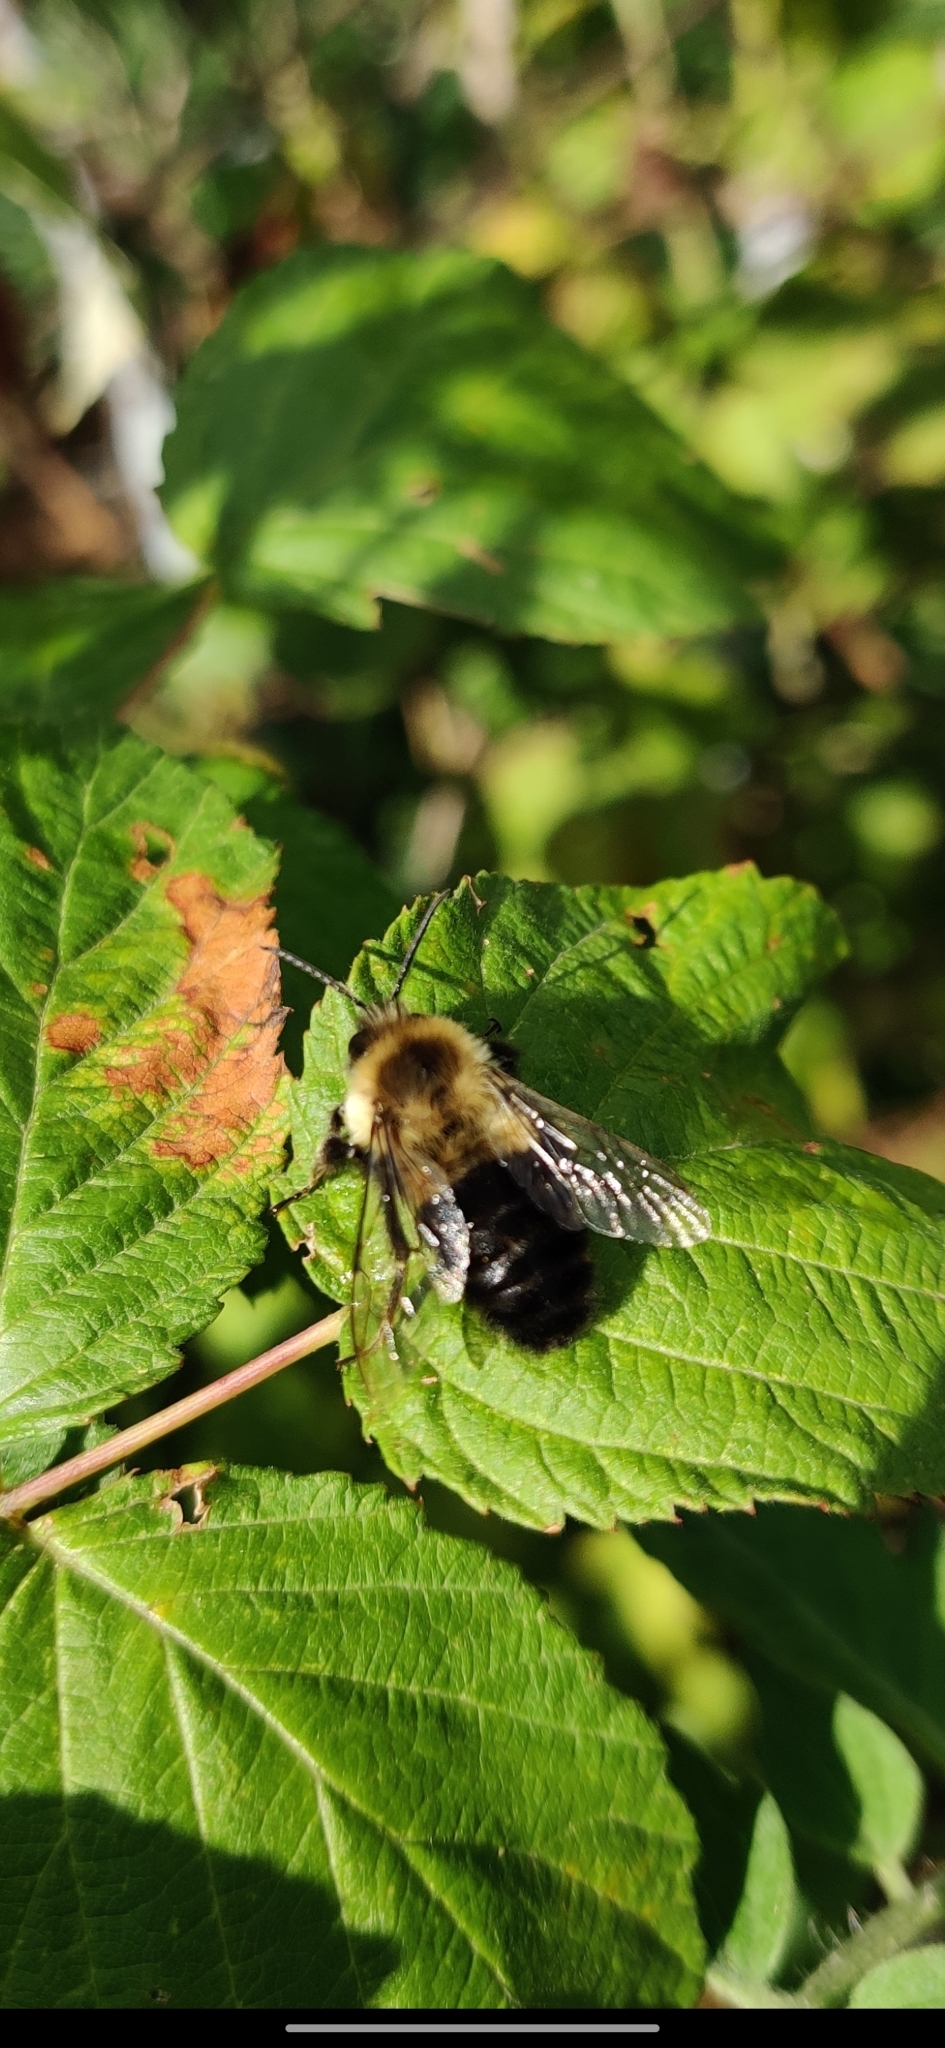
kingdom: Animalia
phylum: Arthropoda
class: Insecta
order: Hymenoptera
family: Apidae
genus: Bombus
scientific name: Bombus impatiens
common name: Common eastern bumble bee
